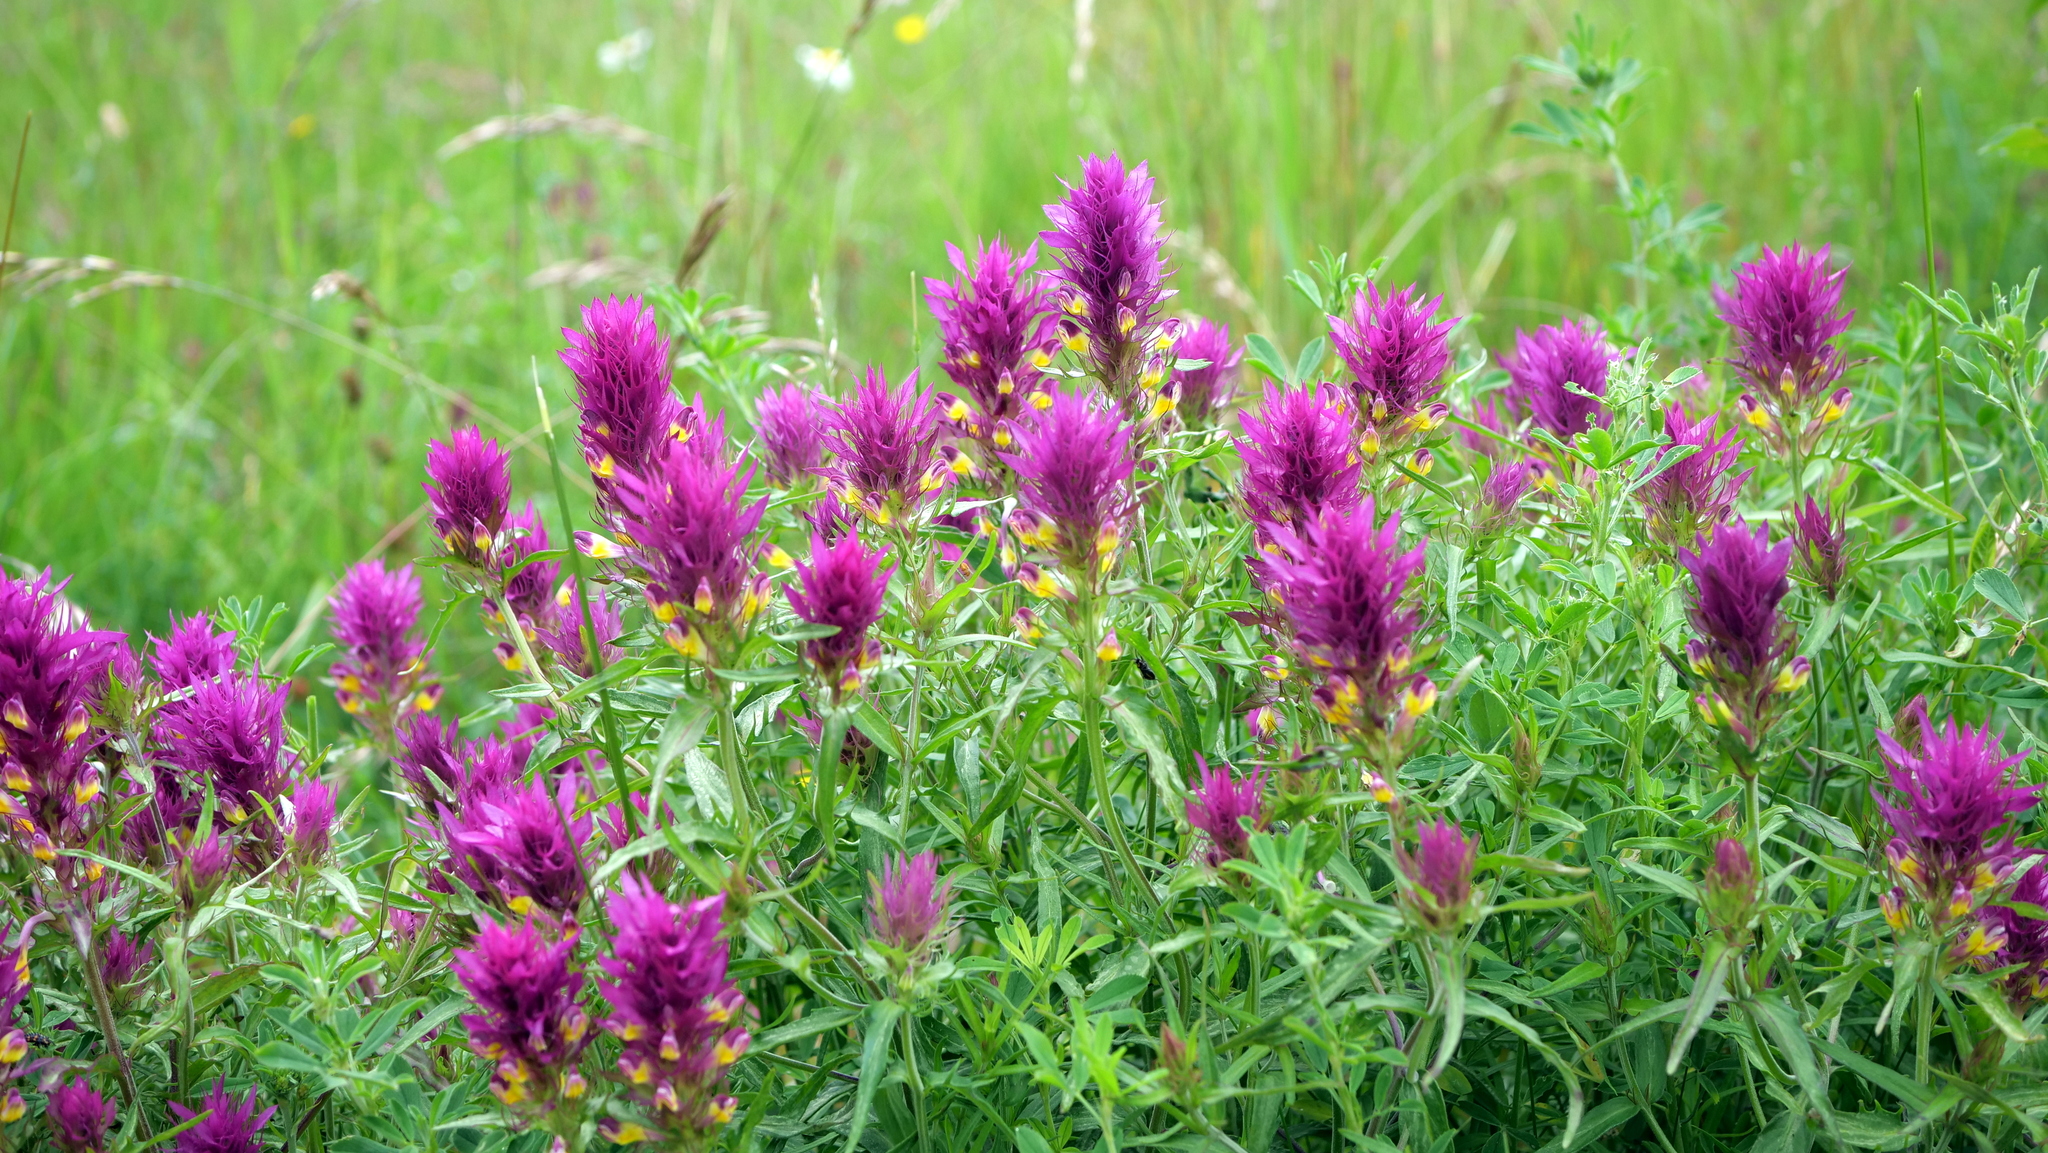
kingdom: Plantae
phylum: Tracheophyta
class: Magnoliopsida
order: Lamiales
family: Orobanchaceae
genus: Melampyrum
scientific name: Melampyrum arvense
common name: Field cow-wheat
